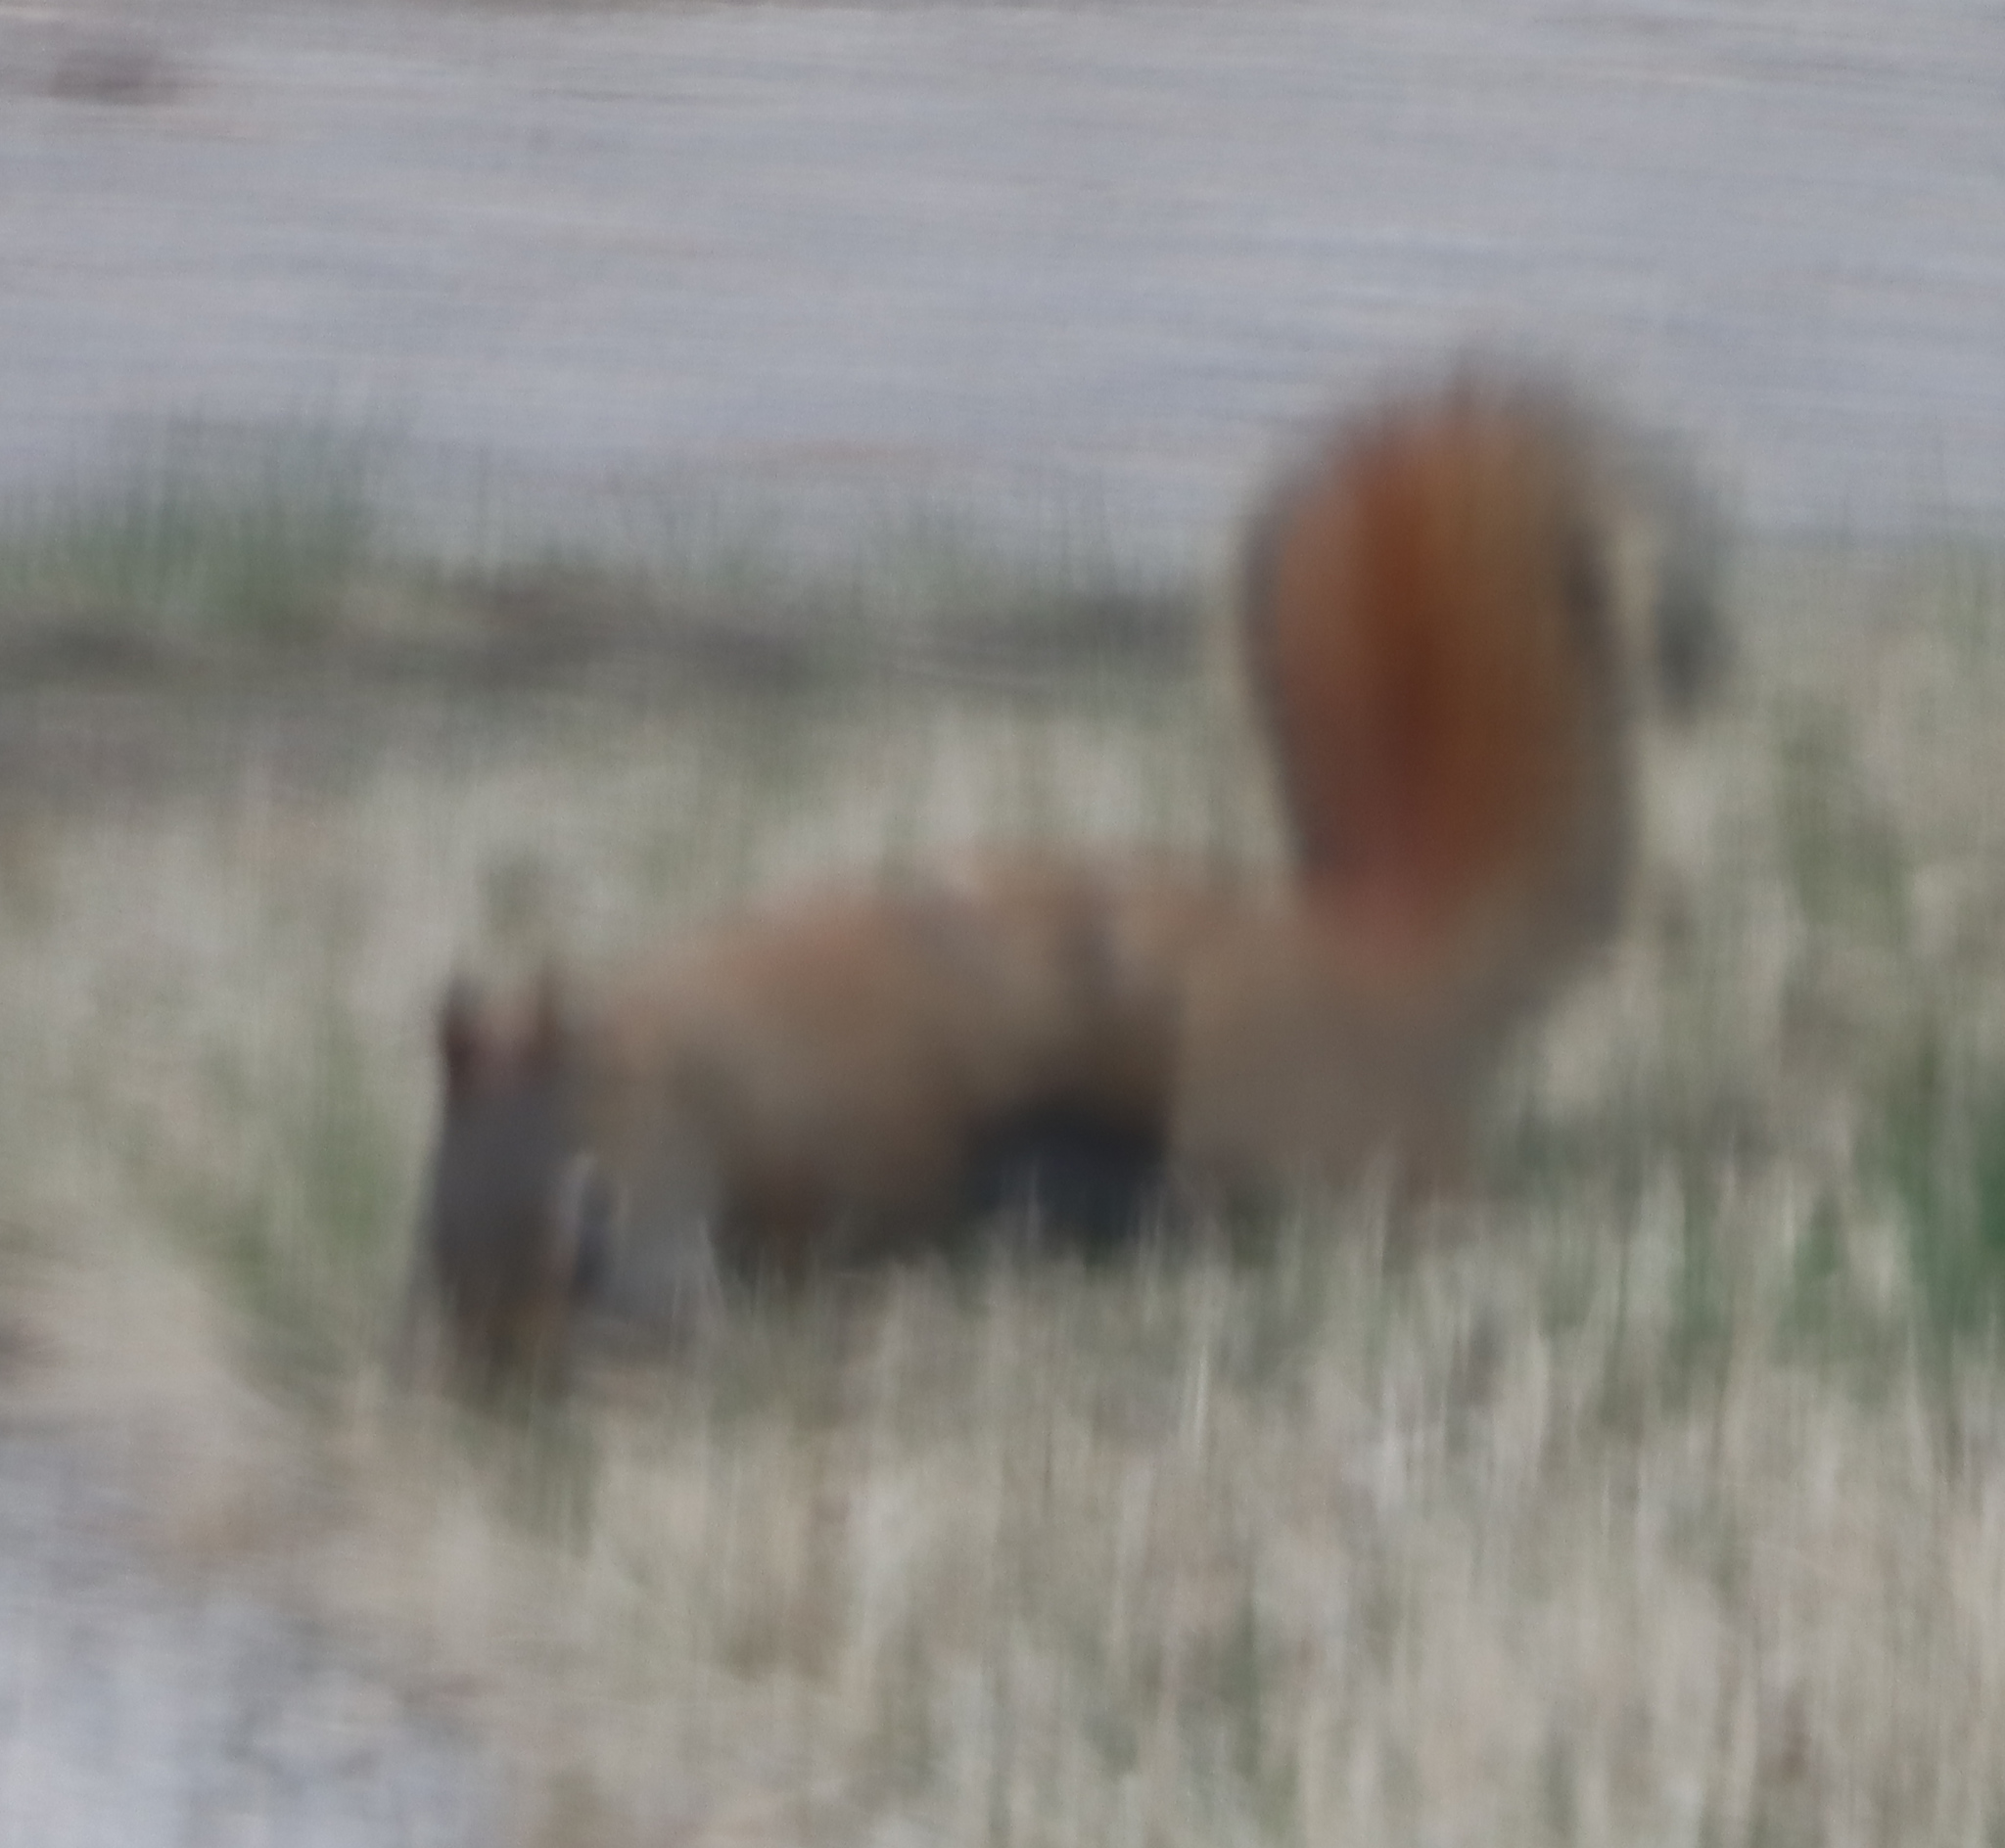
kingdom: Animalia
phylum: Chordata
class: Mammalia
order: Rodentia
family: Sciuridae
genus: Tamiasciurus
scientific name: Tamiasciurus hudsonicus
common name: Red squirrel
